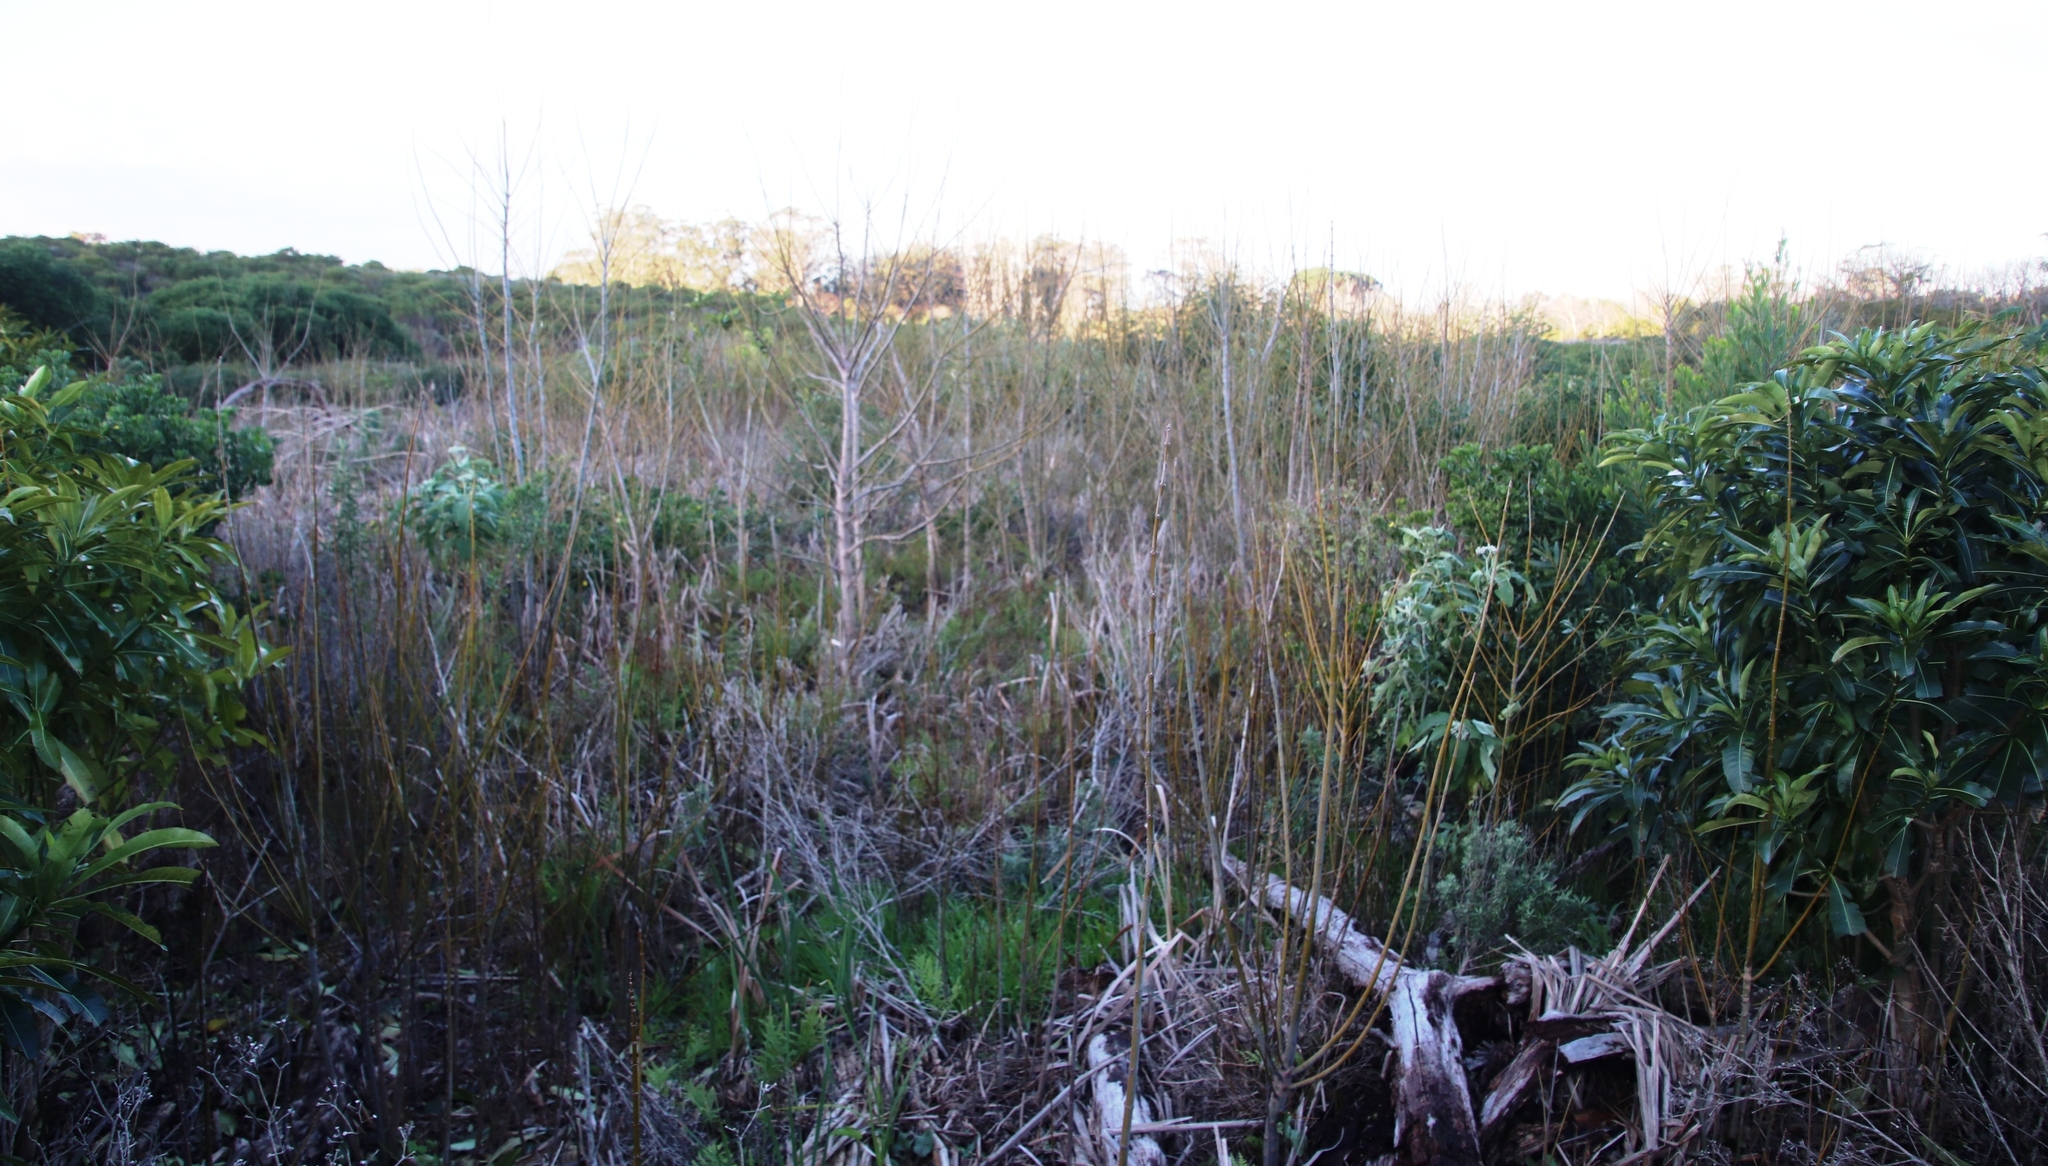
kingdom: Plantae
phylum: Tracheophyta
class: Magnoliopsida
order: Sapindales
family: Sapindaceae
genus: Acer
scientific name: Acer negundo
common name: Ashleaf maple
